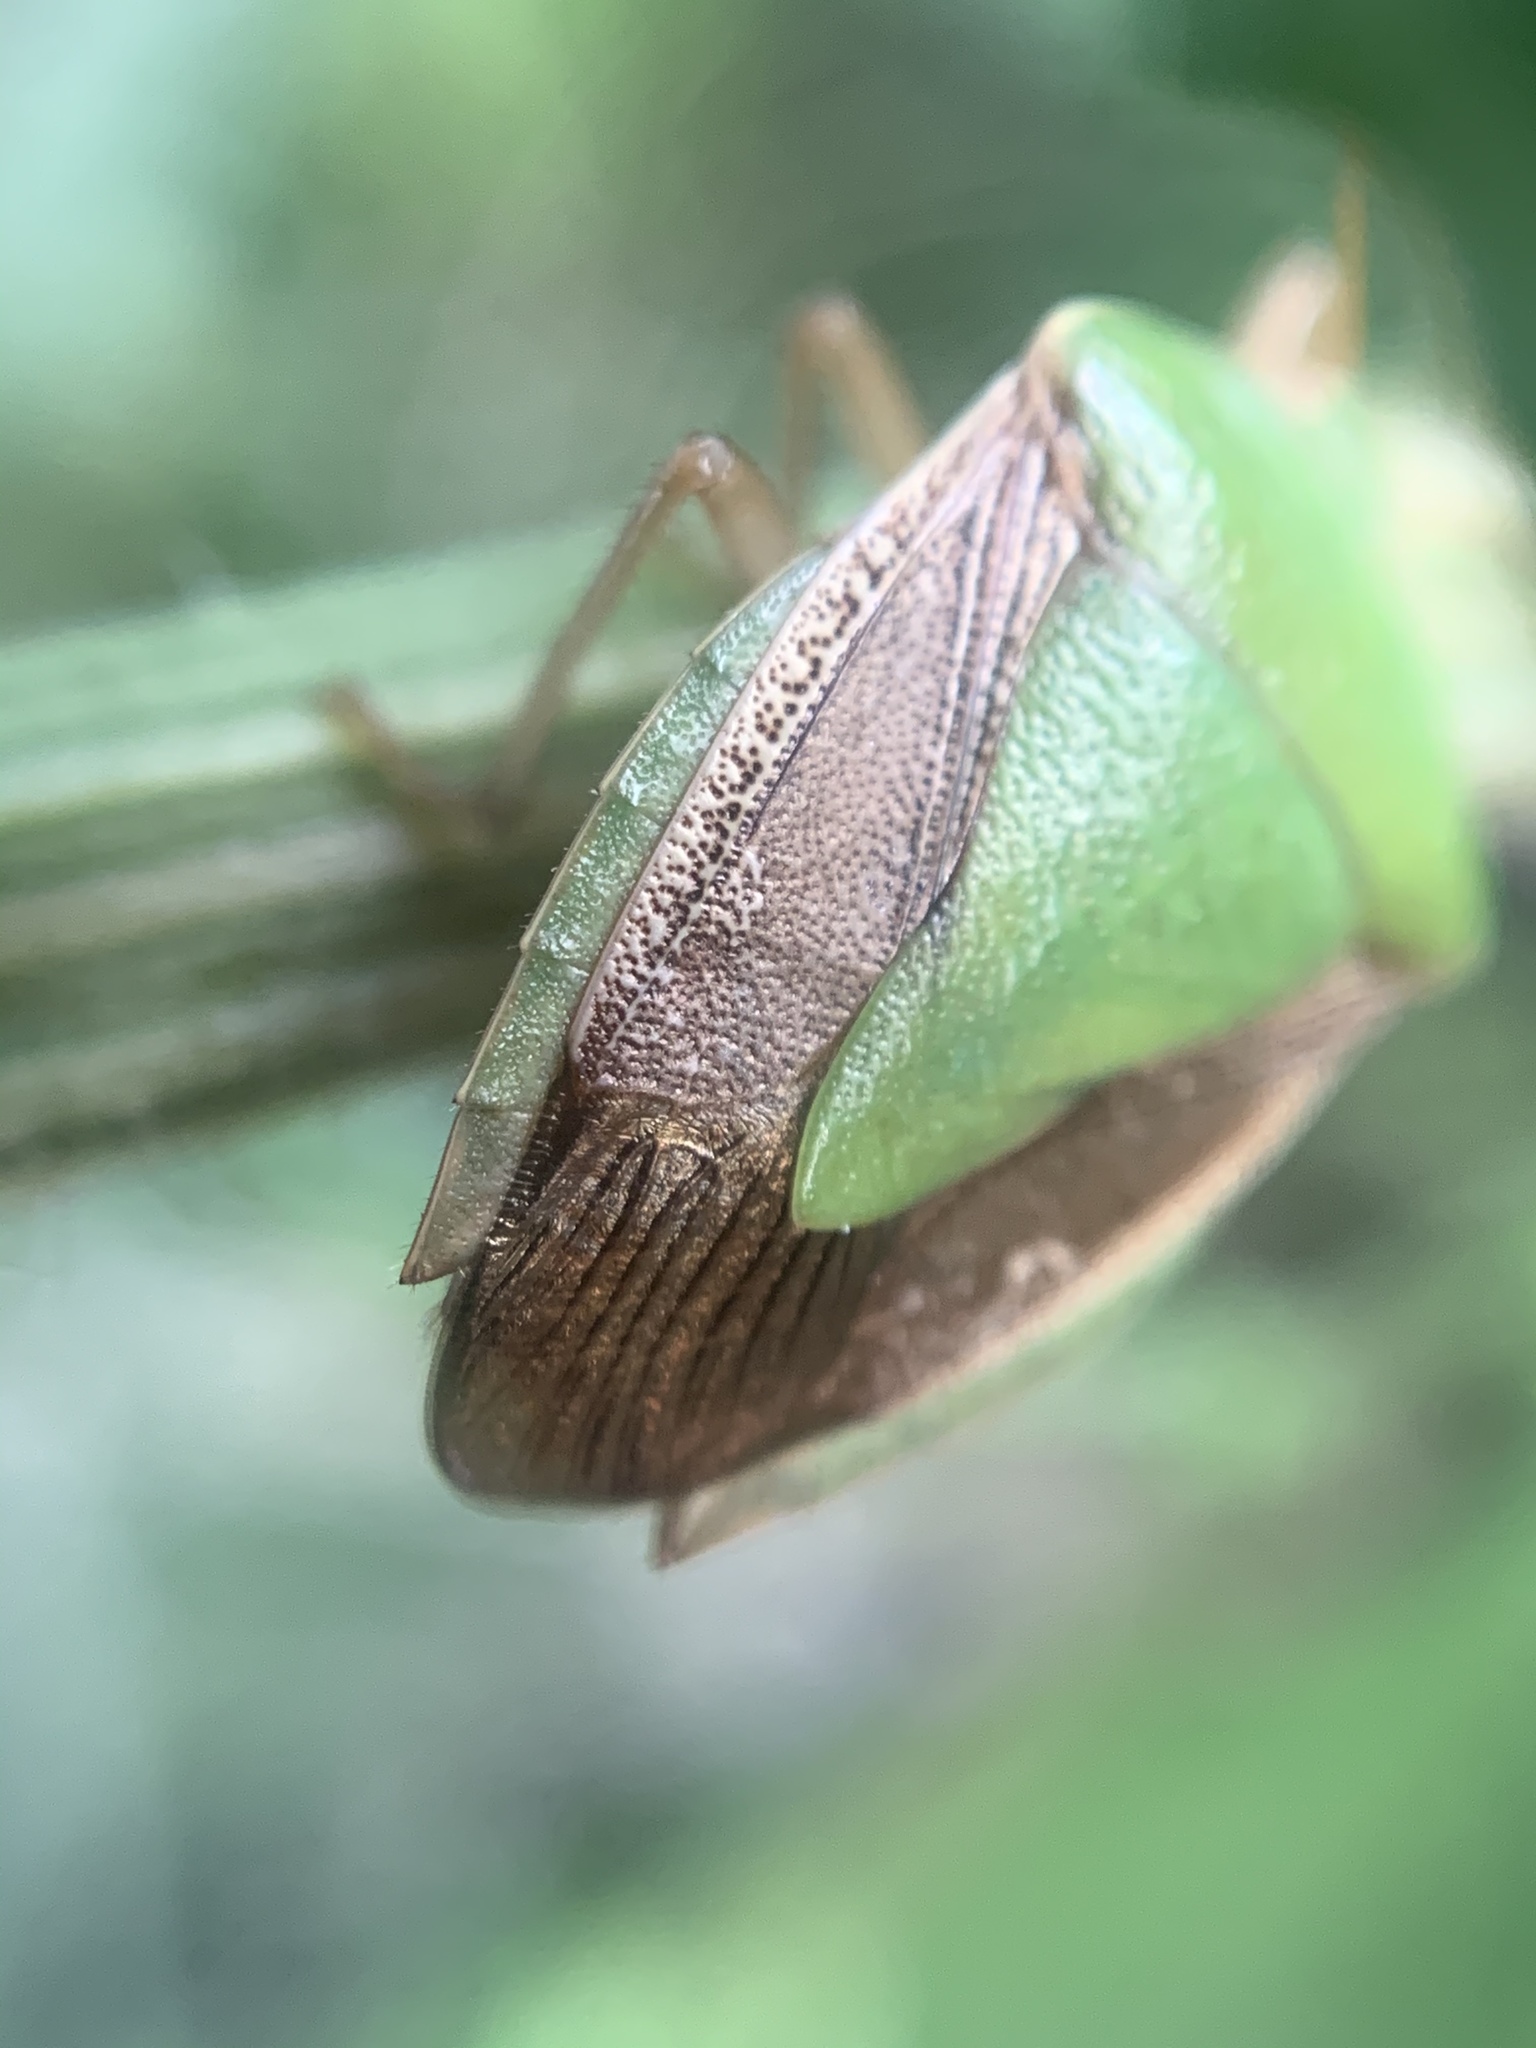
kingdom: Animalia
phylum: Arthropoda
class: Insecta
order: Hemiptera
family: Pentatomidae
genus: Edessa
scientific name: Edessa meditabunda
